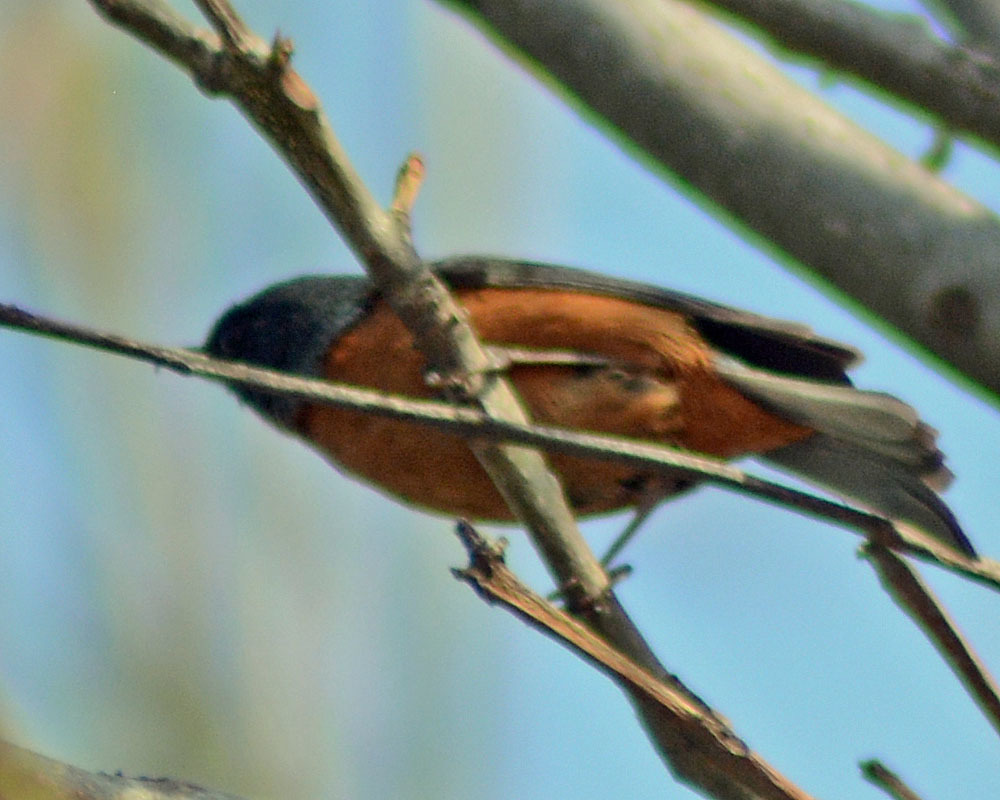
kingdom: Animalia
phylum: Chordata
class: Aves
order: Passeriformes
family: Thraupidae
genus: Diglossa
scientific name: Diglossa baritula
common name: Cinnamon-bellied flowerpiercer
